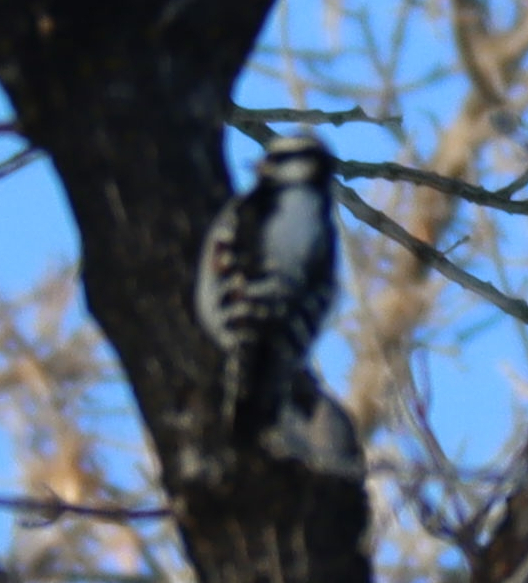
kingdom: Animalia
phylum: Chordata
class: Aves
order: Piciformes
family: Picidae
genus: Dryobates
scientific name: Dryobates pubescens
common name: Downy woodpecker
